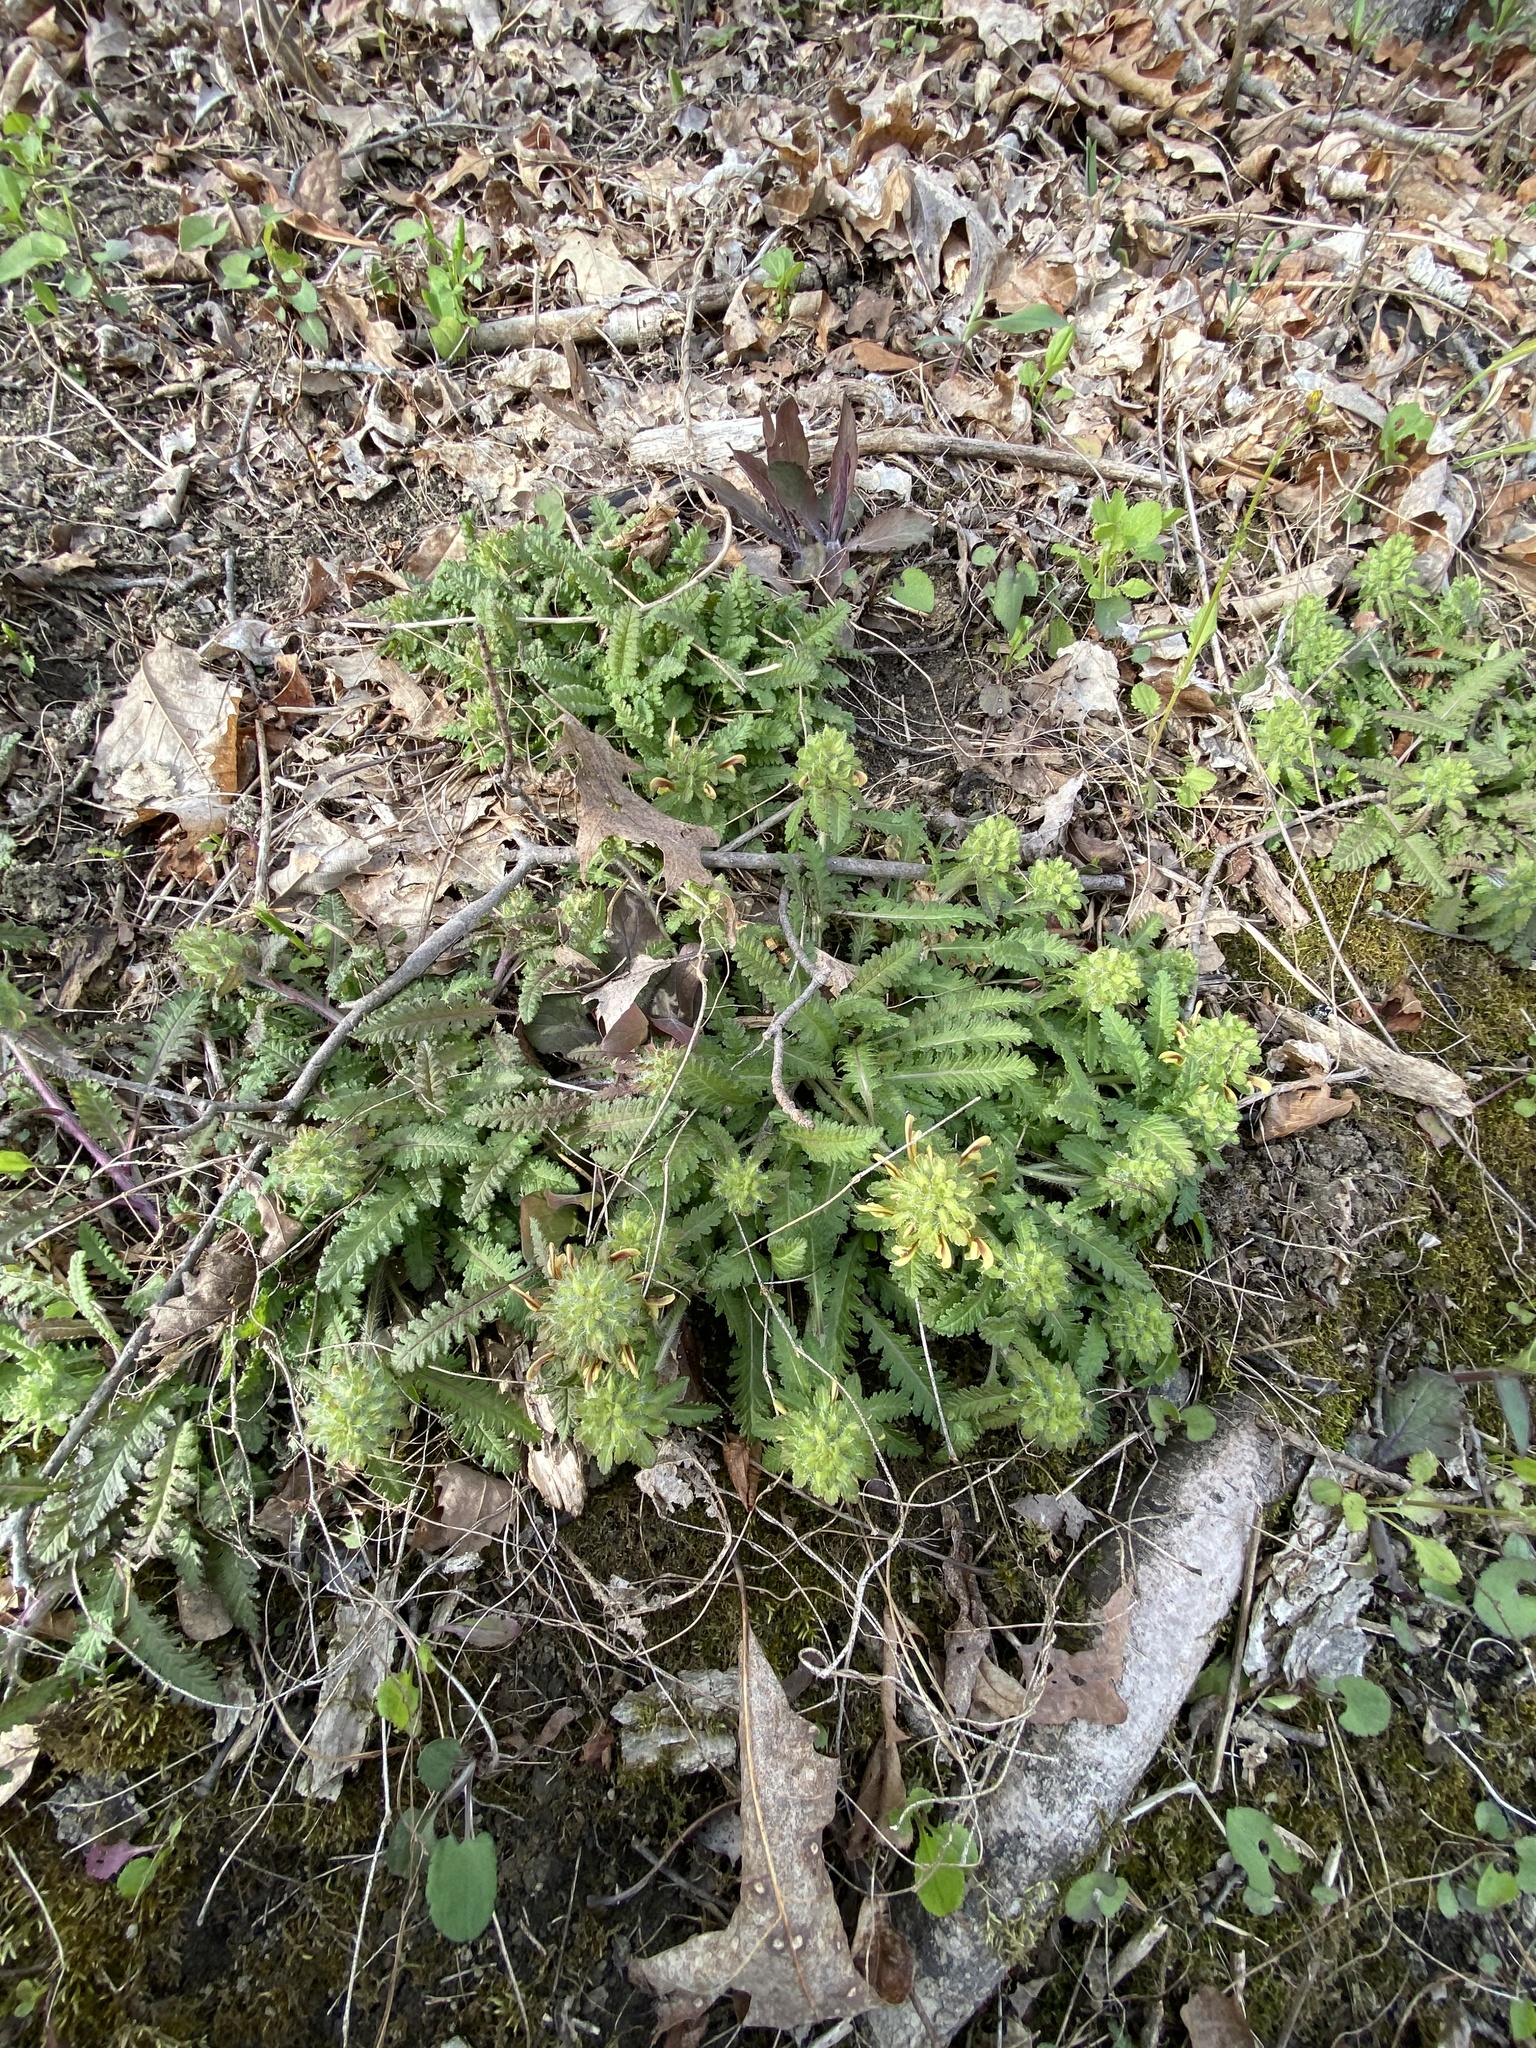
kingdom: Plantae
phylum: Tracheophyta
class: Magnoliopsida
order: Lamiales
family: Orobanchaceae
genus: Pedicularis
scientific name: Pedicularis canadensis
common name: Early lousewort
